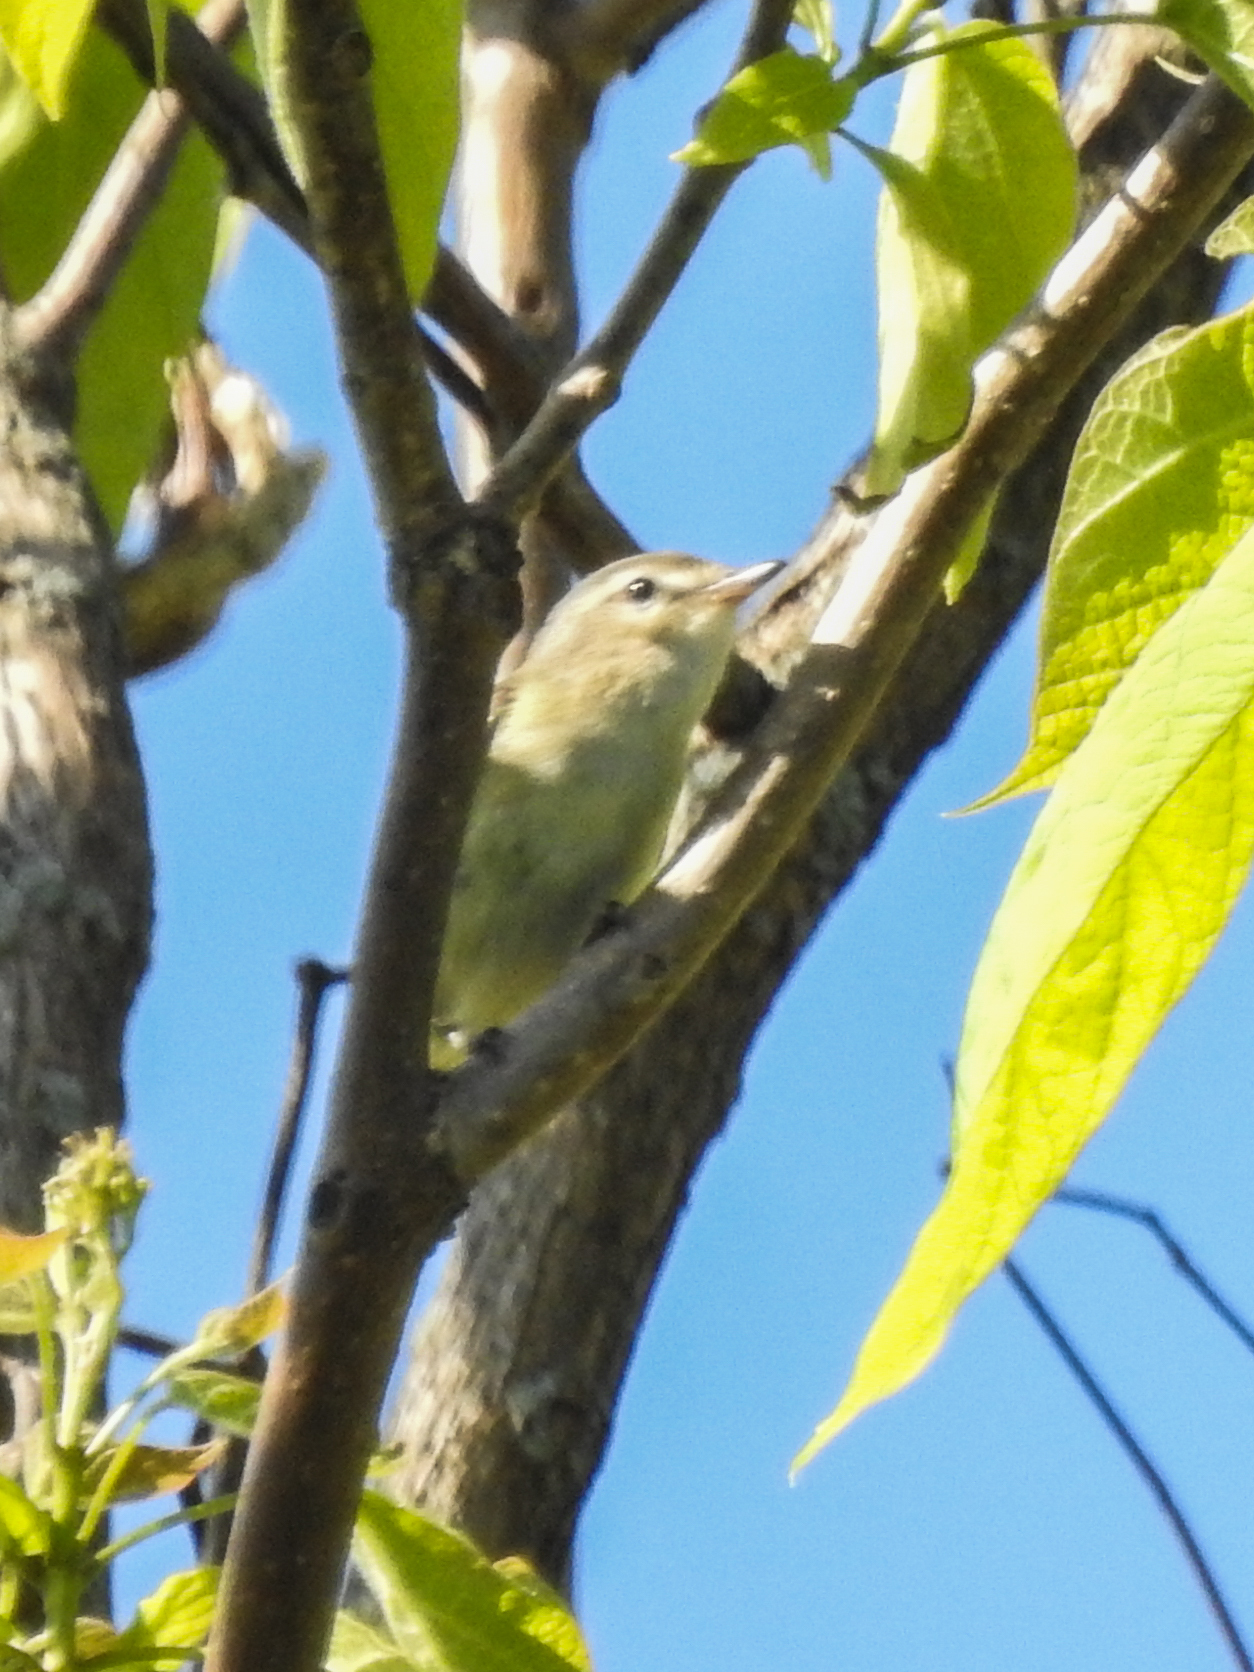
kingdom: Animalia
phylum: Chordata
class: Aves
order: Passeriformes
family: Vireonidae
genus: Vireo
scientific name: Vireo gilvus
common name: Warbling vireo
